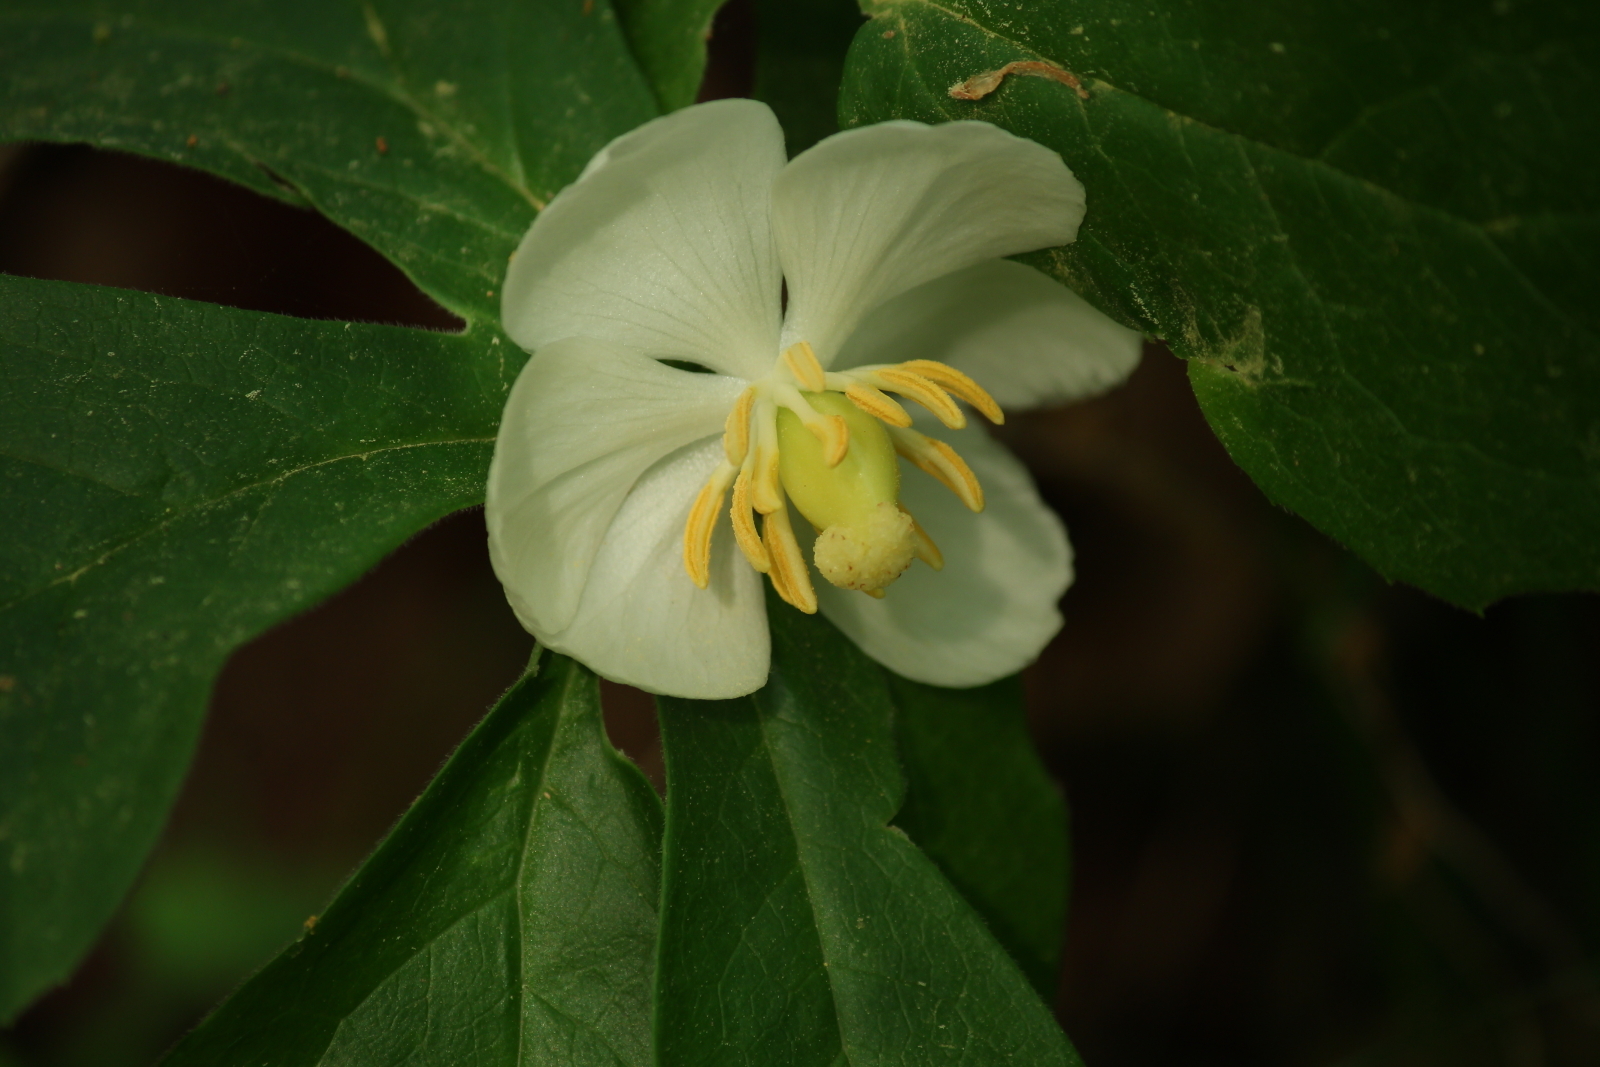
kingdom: Plantae
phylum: Tracheophyta
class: Magnoliopsida
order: Ranunculales
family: Berberidaceae
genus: Podophyllum
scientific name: Podophyllum peltatum
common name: Wild mandrake
